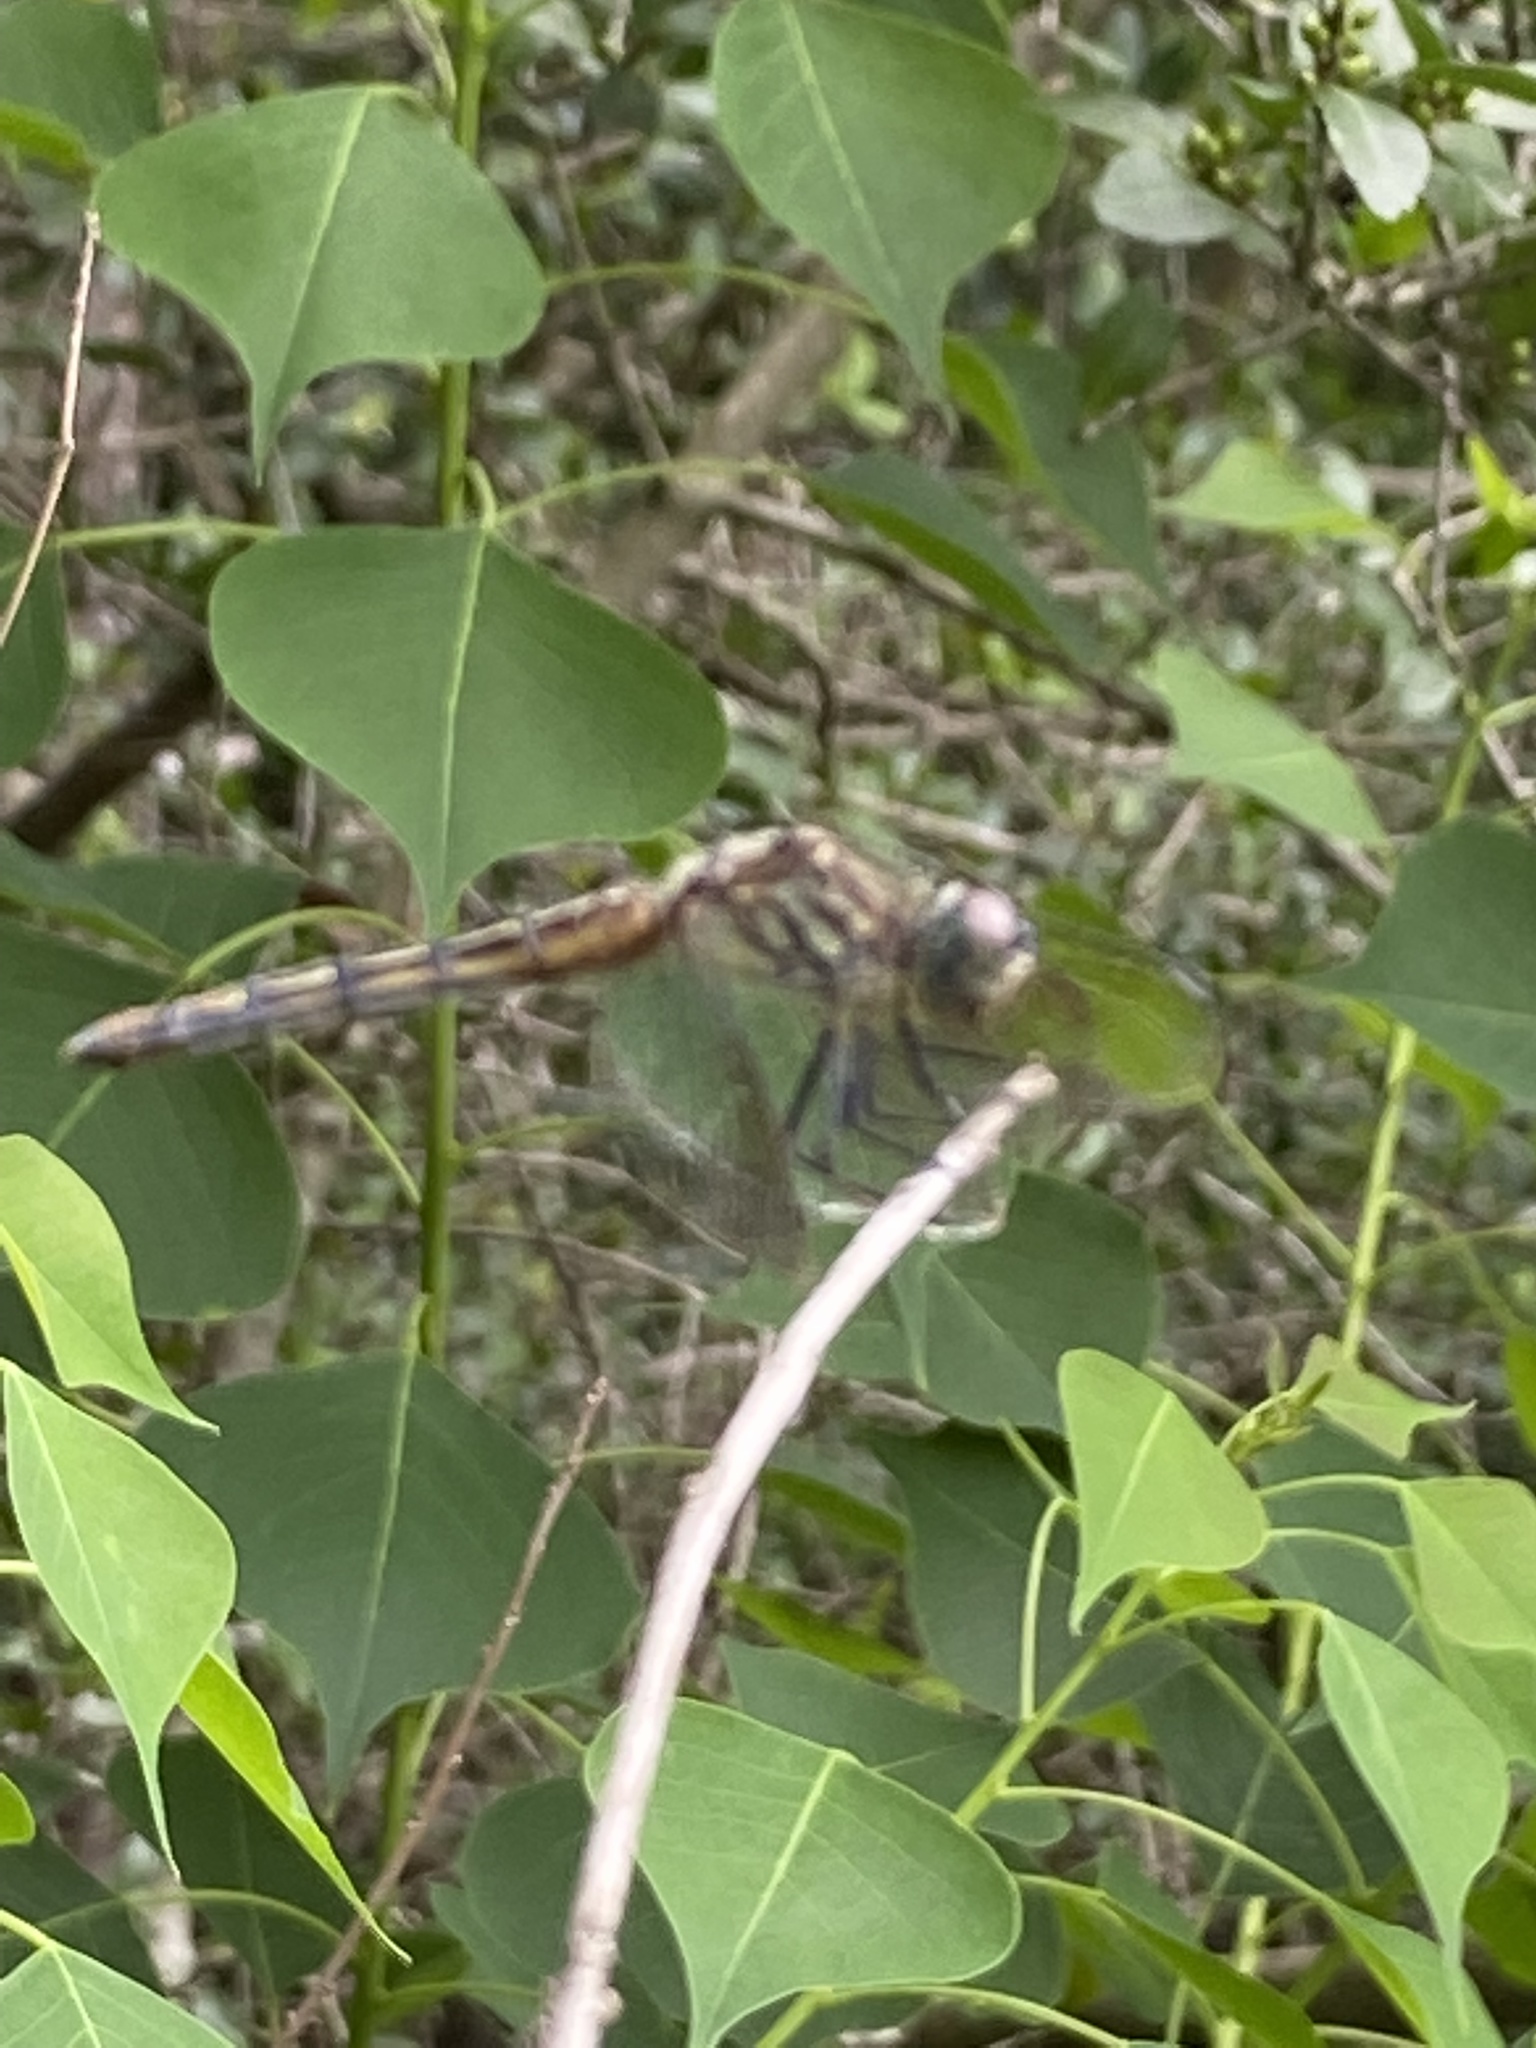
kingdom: Animalia
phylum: Arthropoda
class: Insecta
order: Odonata
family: Libellulidae
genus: Pachydiplax
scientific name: Pachydiplax longipennis
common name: Blue dasher
